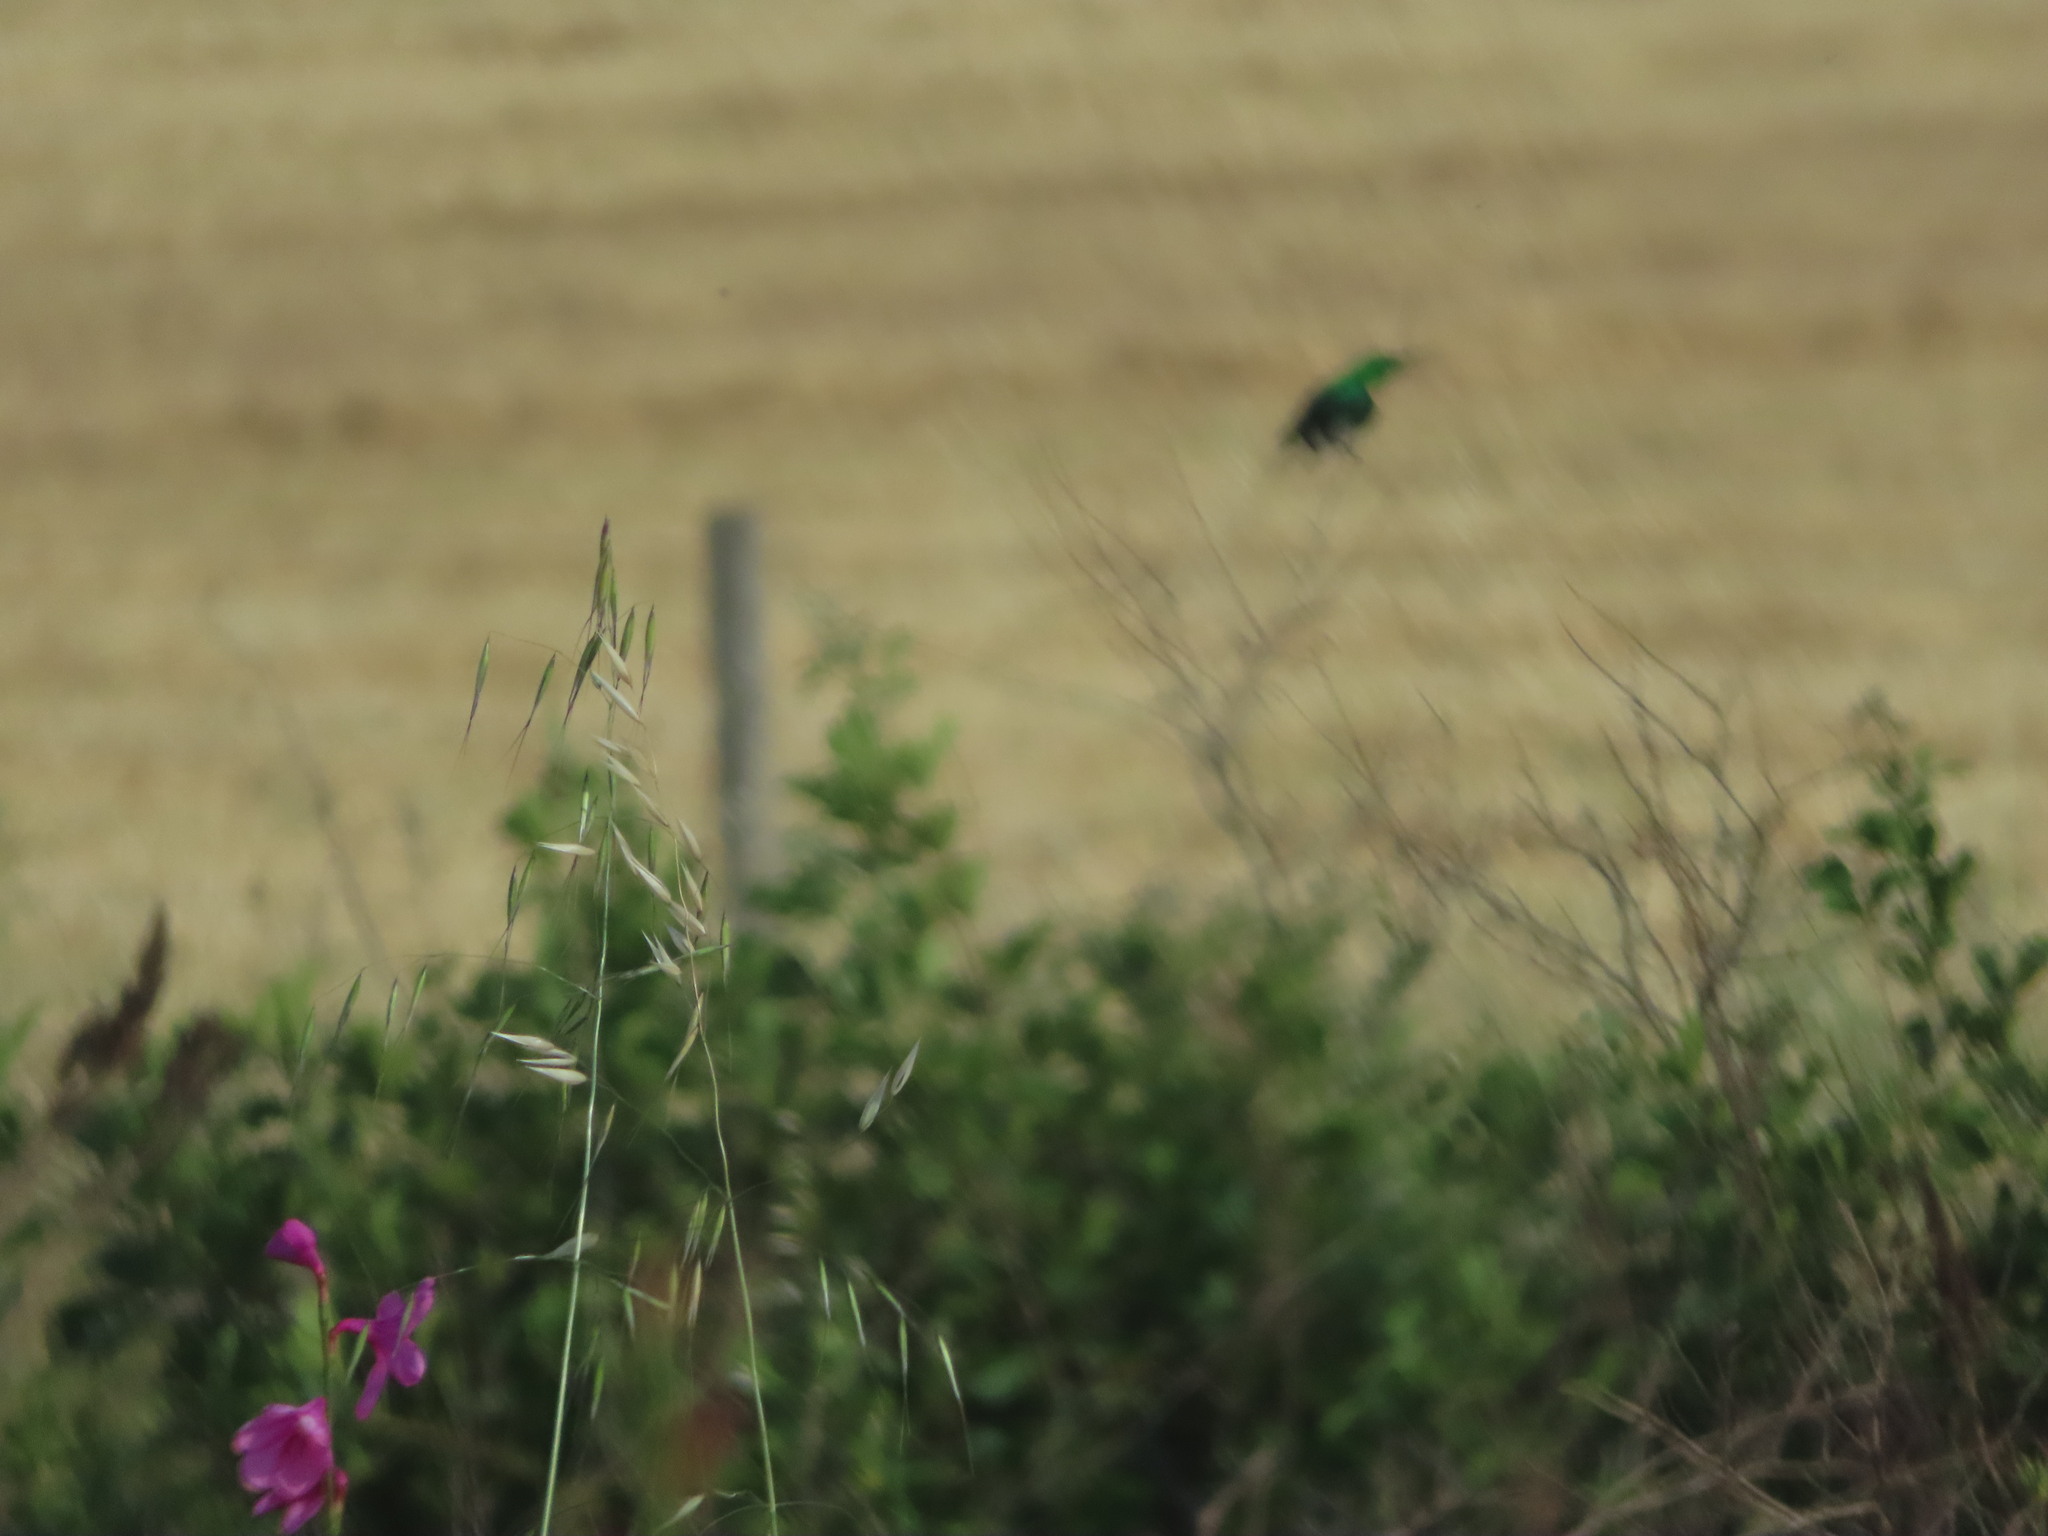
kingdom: Animalia
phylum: Chordata
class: Aves
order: Passeriformes
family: Nectariniidae
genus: Nectarinia
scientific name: Nectarinia famosa
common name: Malachite sunbird
